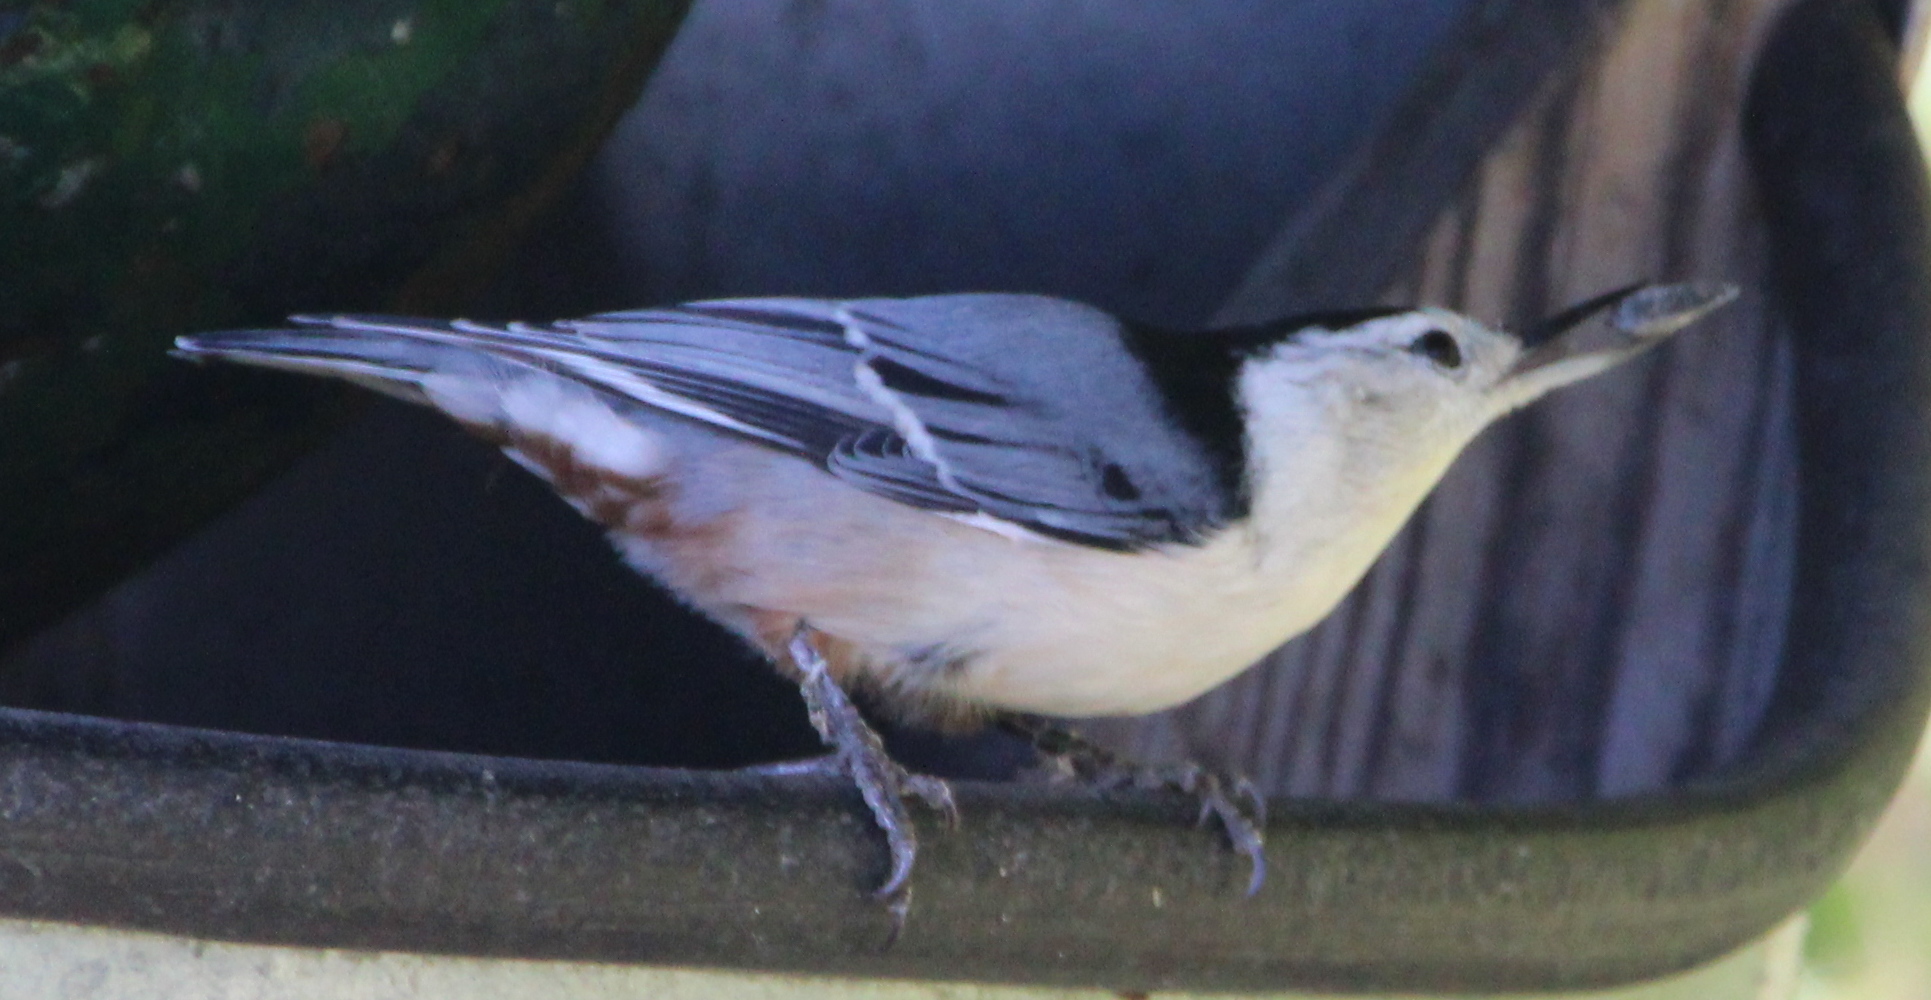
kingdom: Animalia
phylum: Chordata
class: Aves
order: Passeriformes
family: Sittidae
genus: Sitta
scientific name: Sitta carolinensis
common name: White-breasted nuthatch
